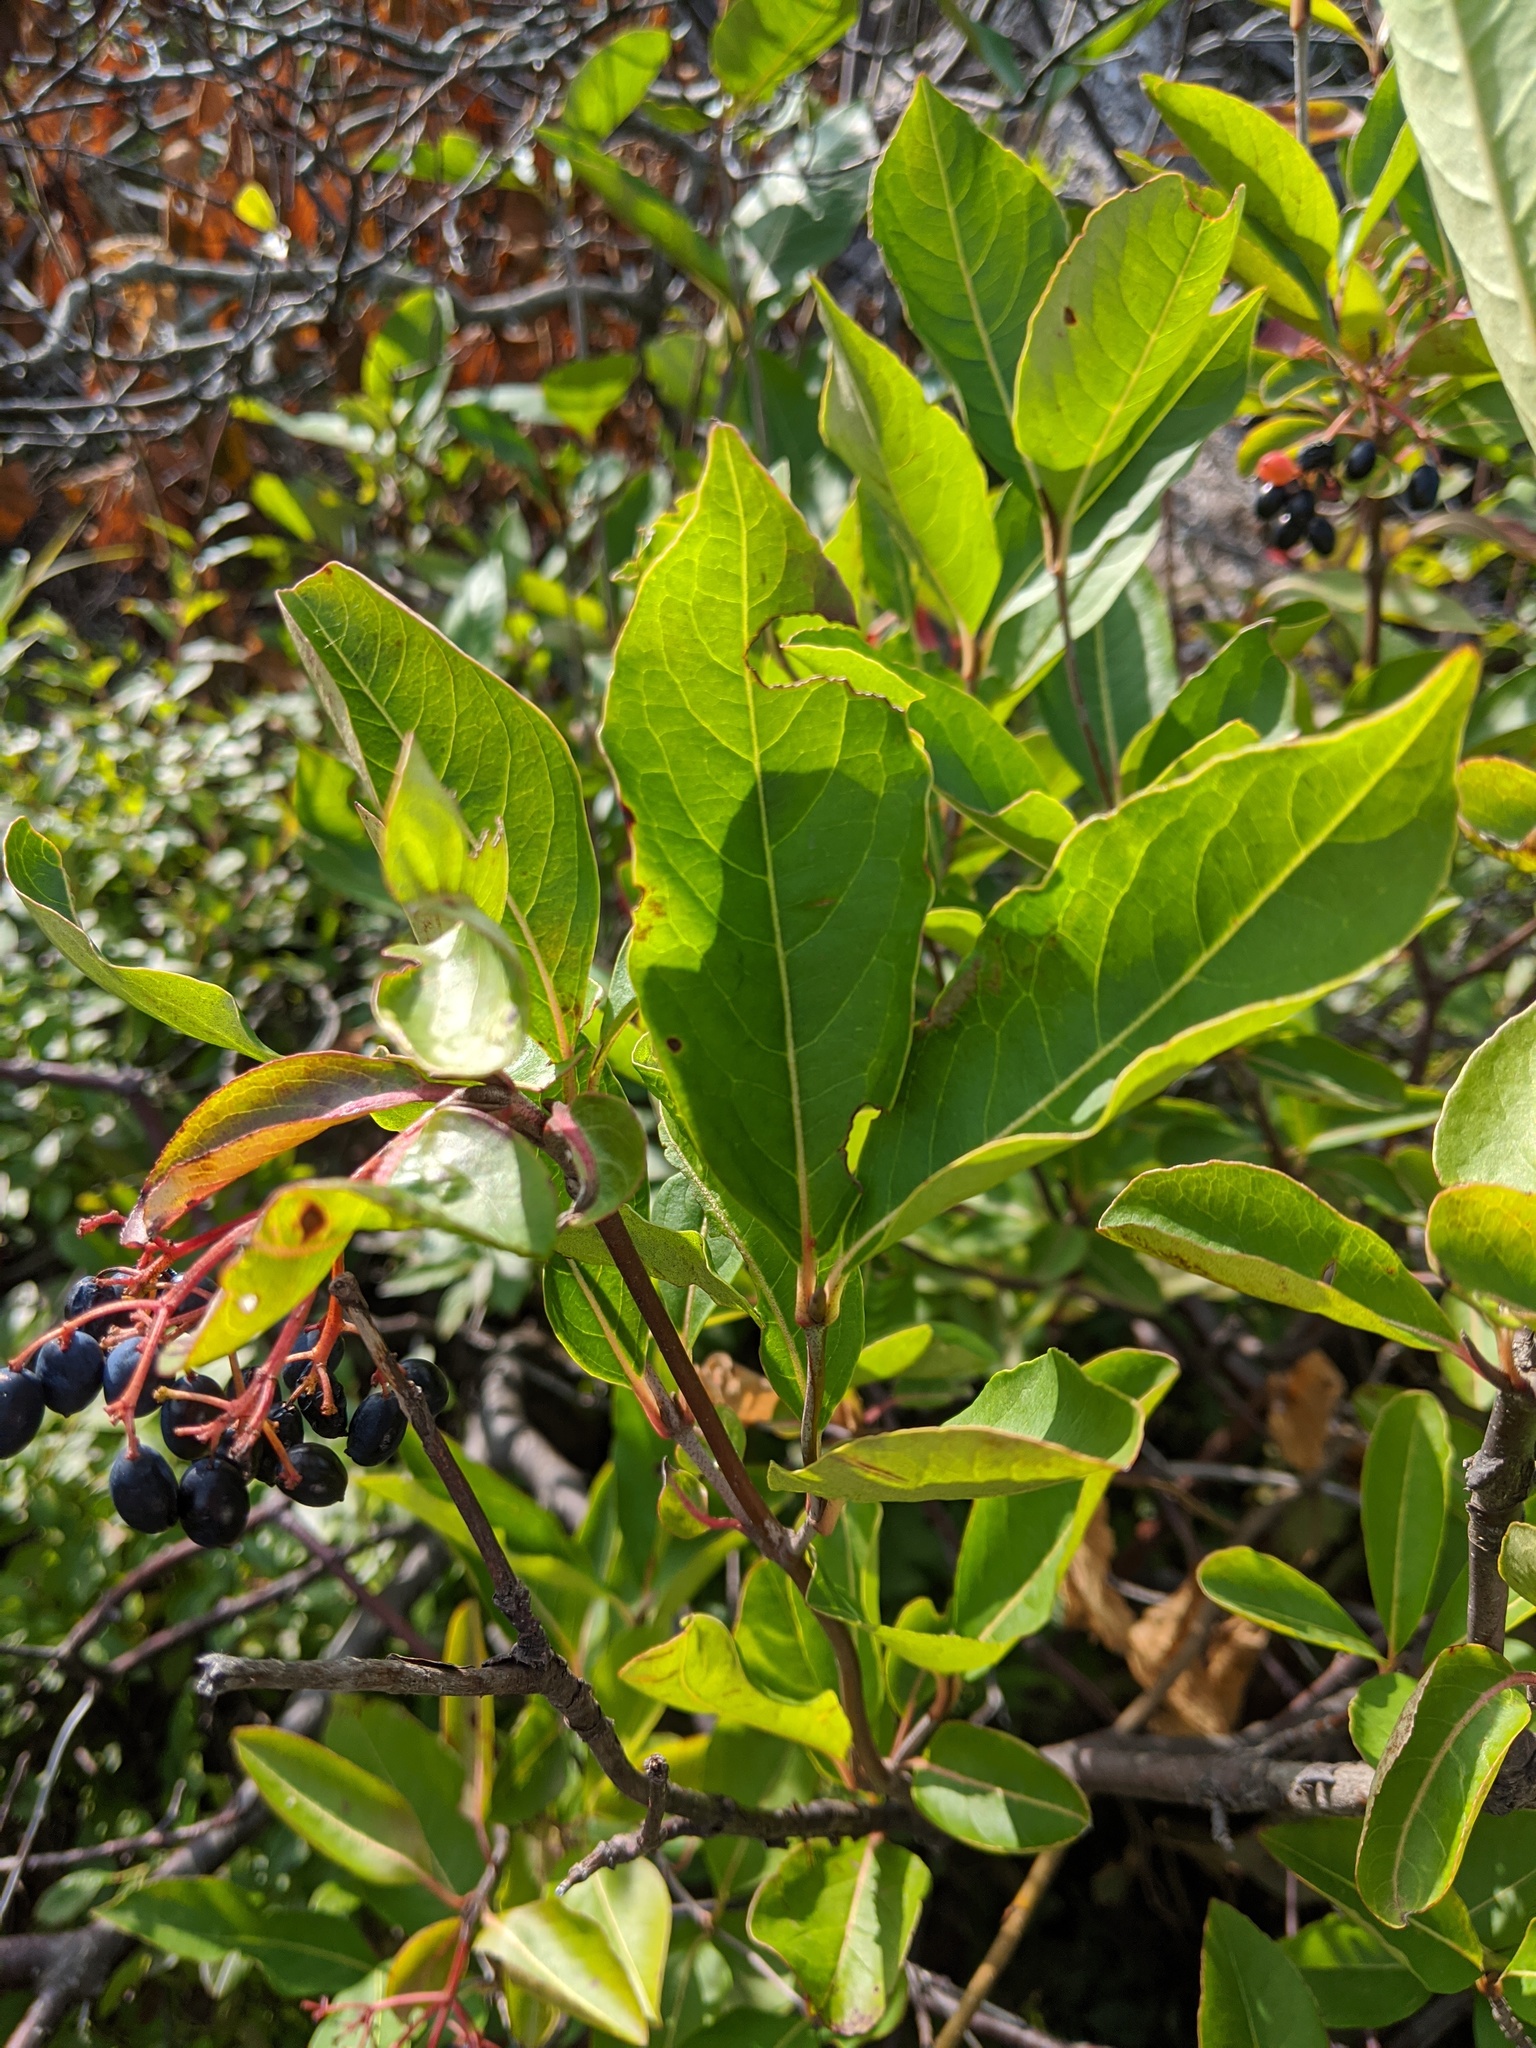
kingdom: Plantae
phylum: Tracheophyta
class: Magnoliopsida
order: Dipsacales
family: Viburnaceae
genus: Viburnum
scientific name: Viburnum cassinoides
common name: Swamp haw
